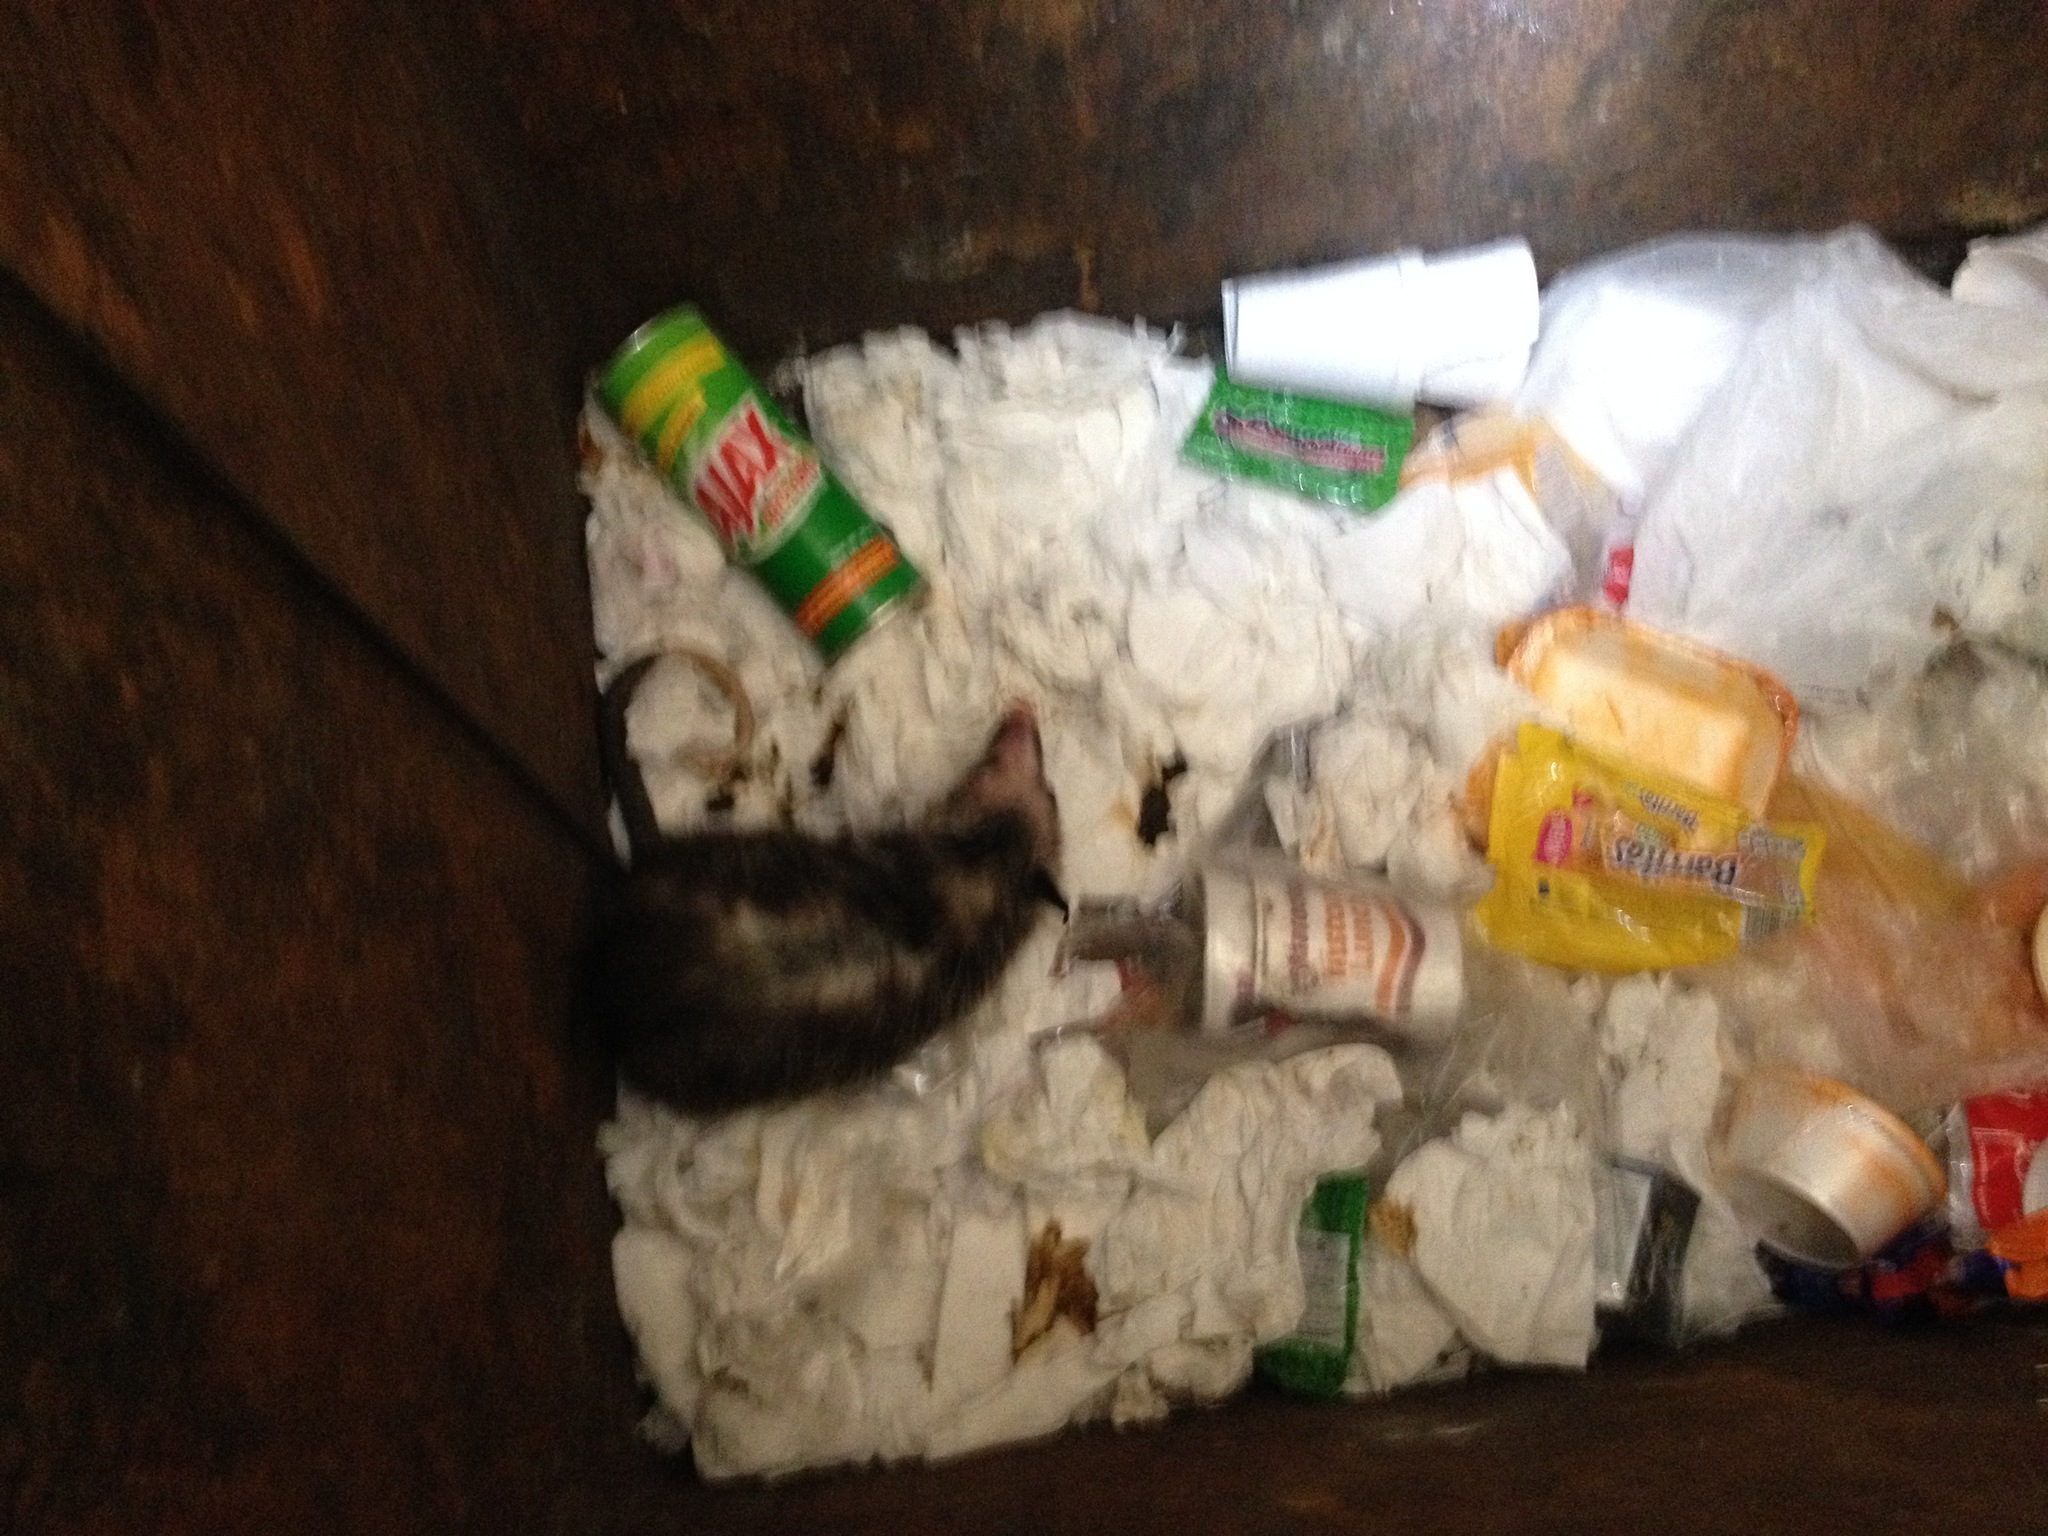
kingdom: Animalia
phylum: Chordata
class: Mammalia
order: Didelphimorphia
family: Didelphidae
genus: Didelphis
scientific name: Didelphis virginiana
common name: Virginia opossum
